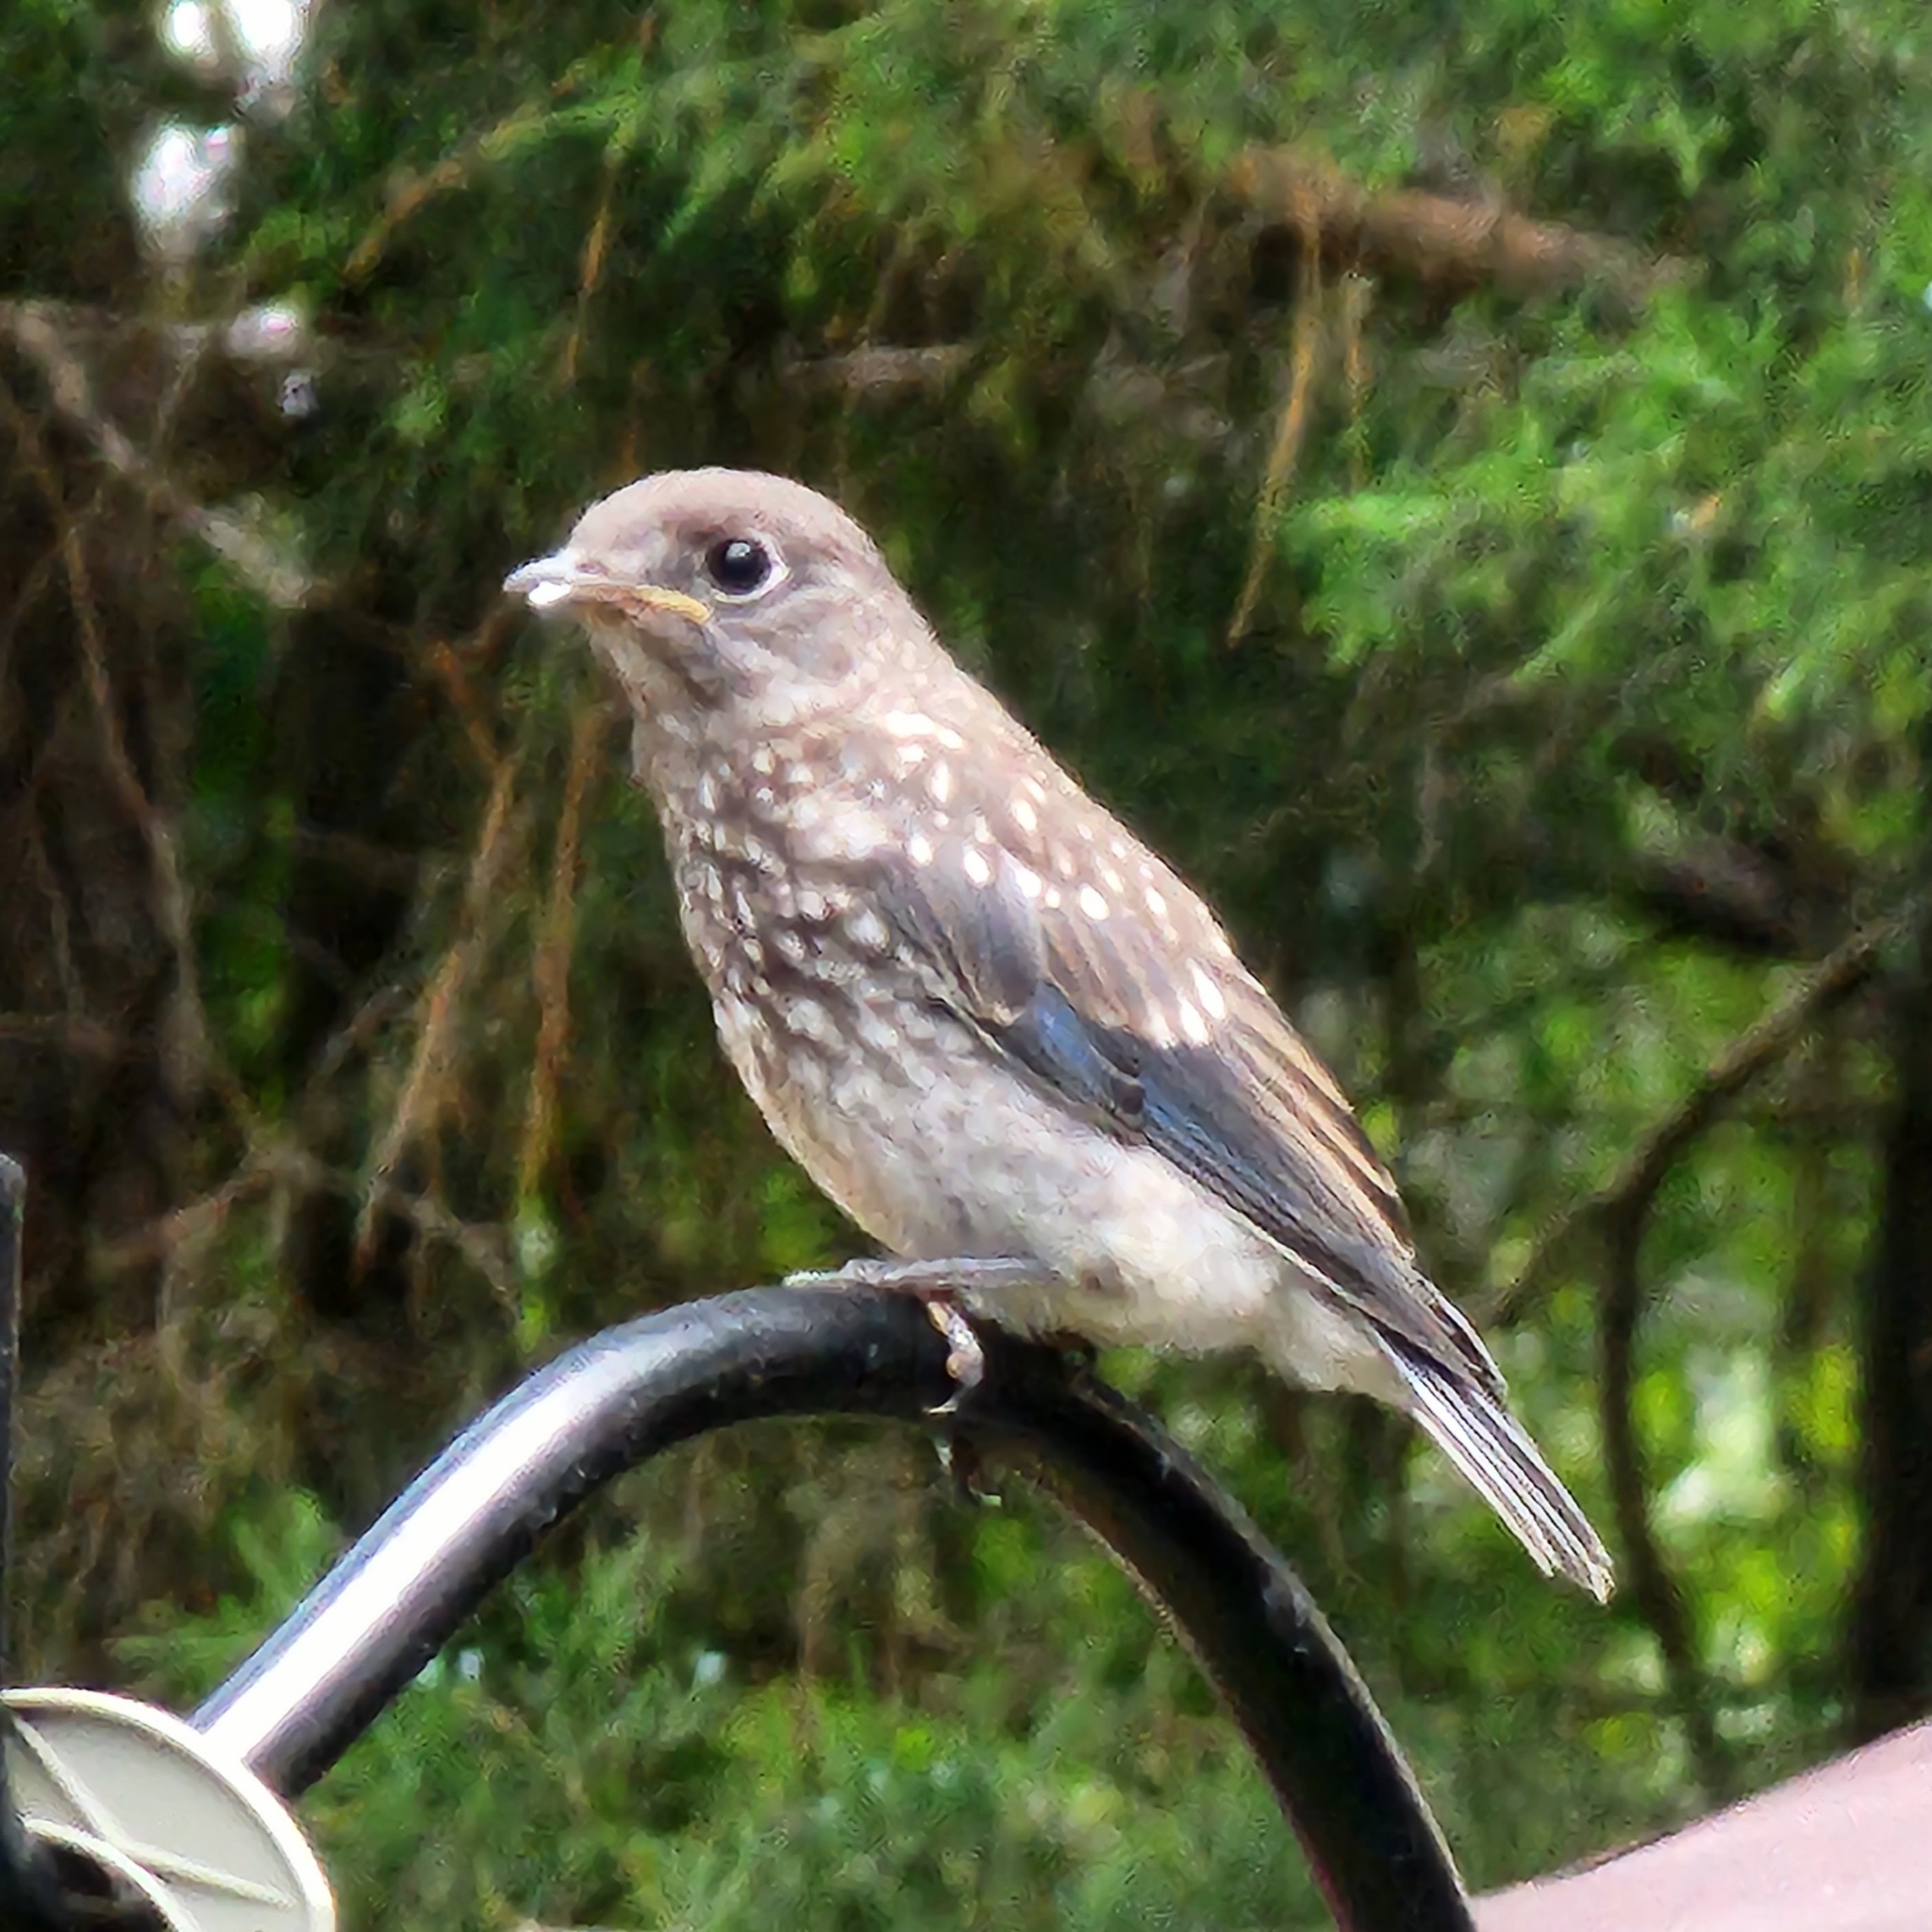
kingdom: Animalia
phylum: Chordata
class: Aves
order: Passeriformes
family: Turdidae
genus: Sialia
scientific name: Sialia sialis
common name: Eastern bluebird
